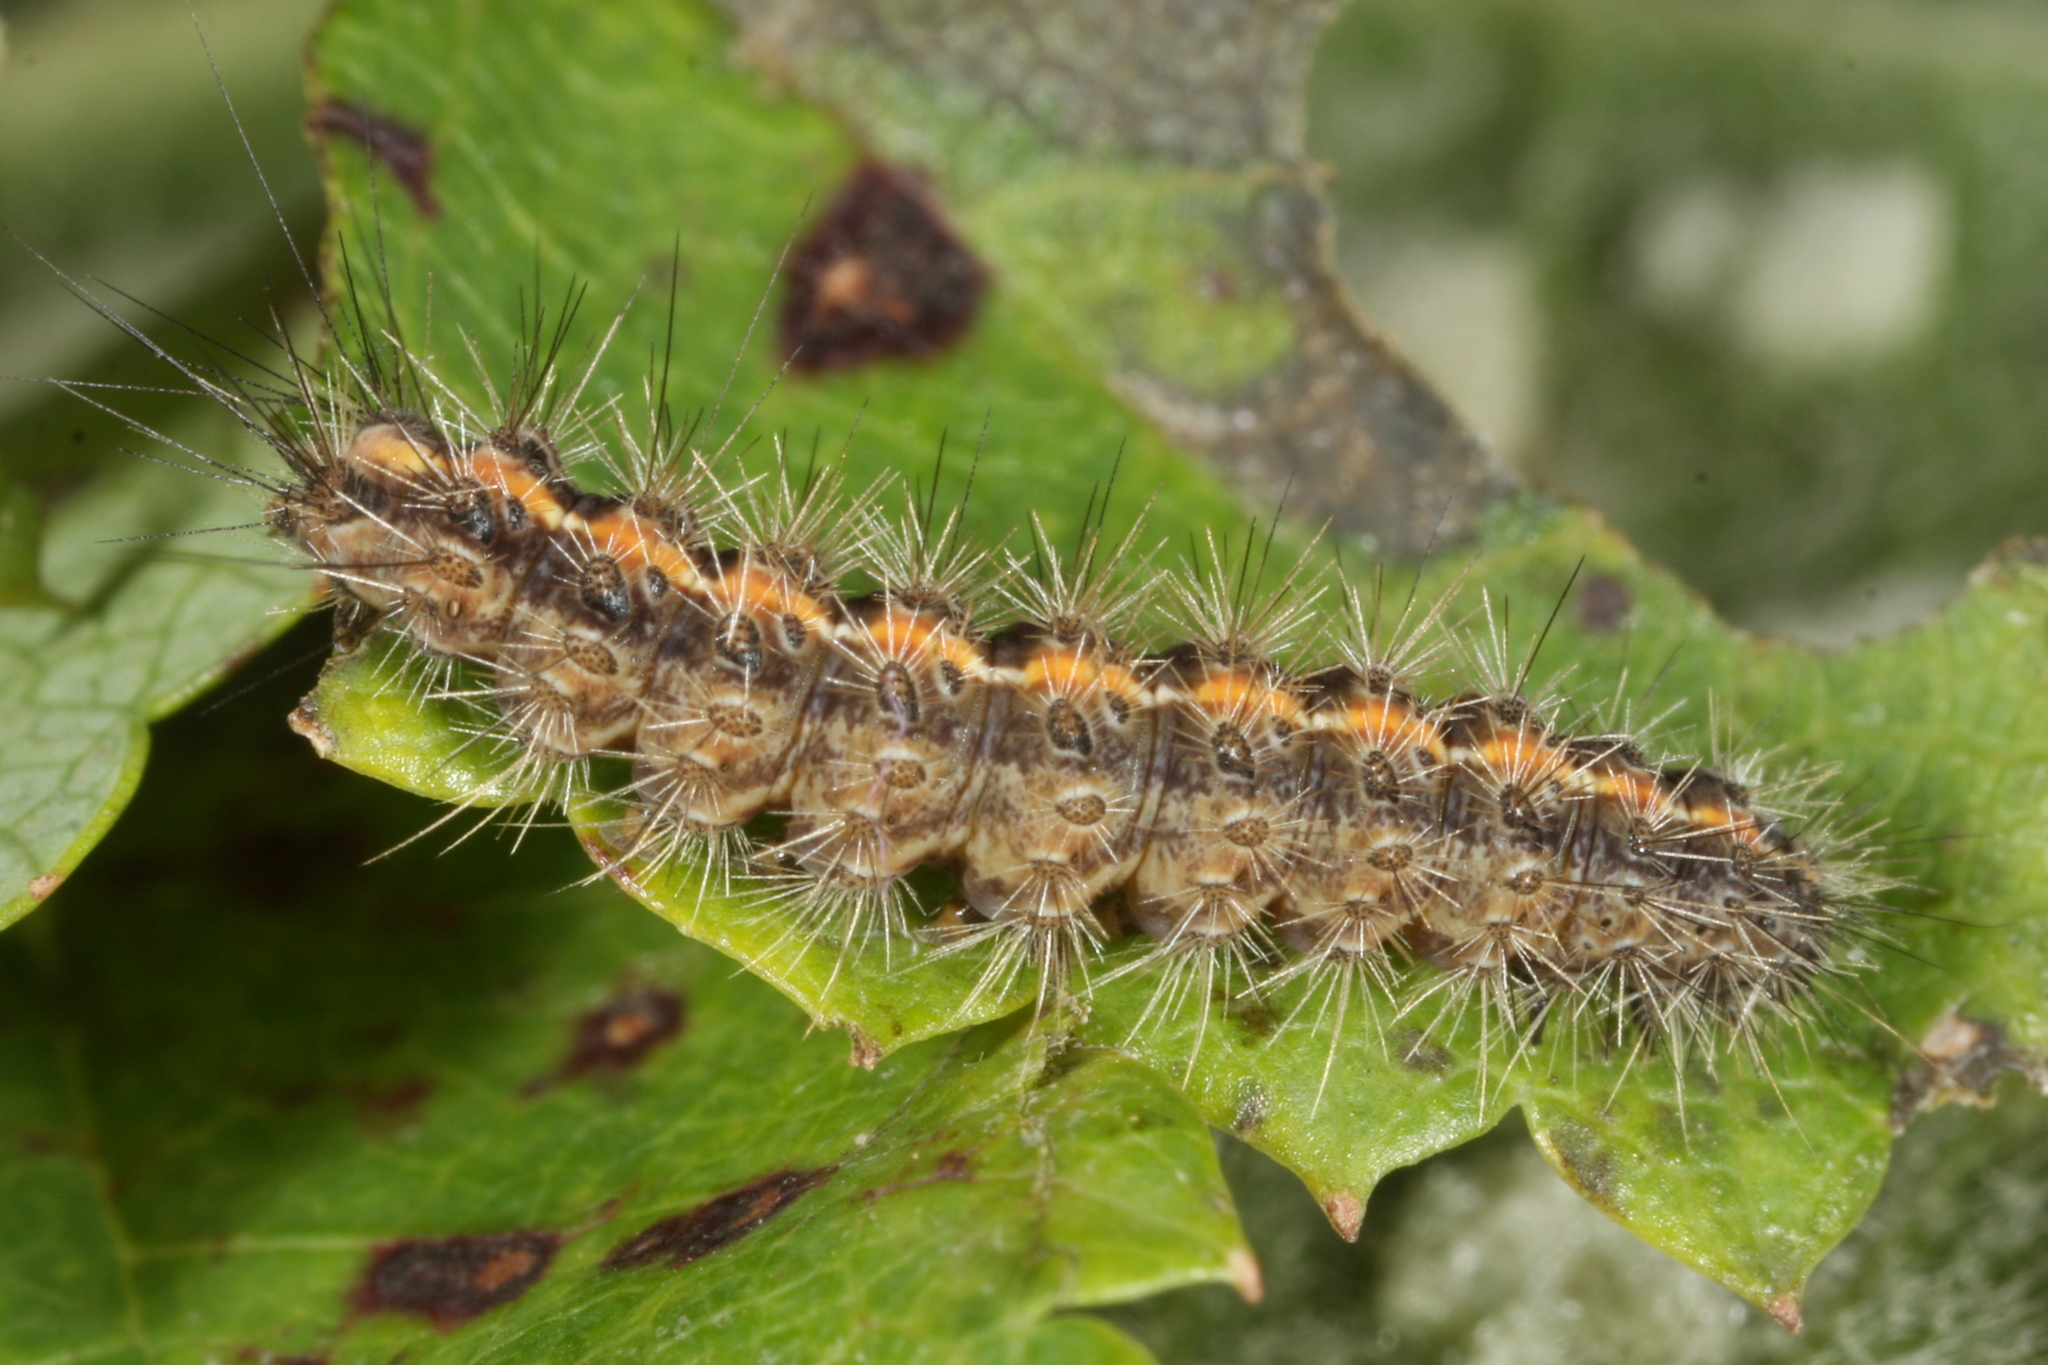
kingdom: Animalia
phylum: Arthropoda
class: Insecta
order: Lepidoptera
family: Erebidae
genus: Diacrisia
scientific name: Diacrisia sannio
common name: Clouded buff
